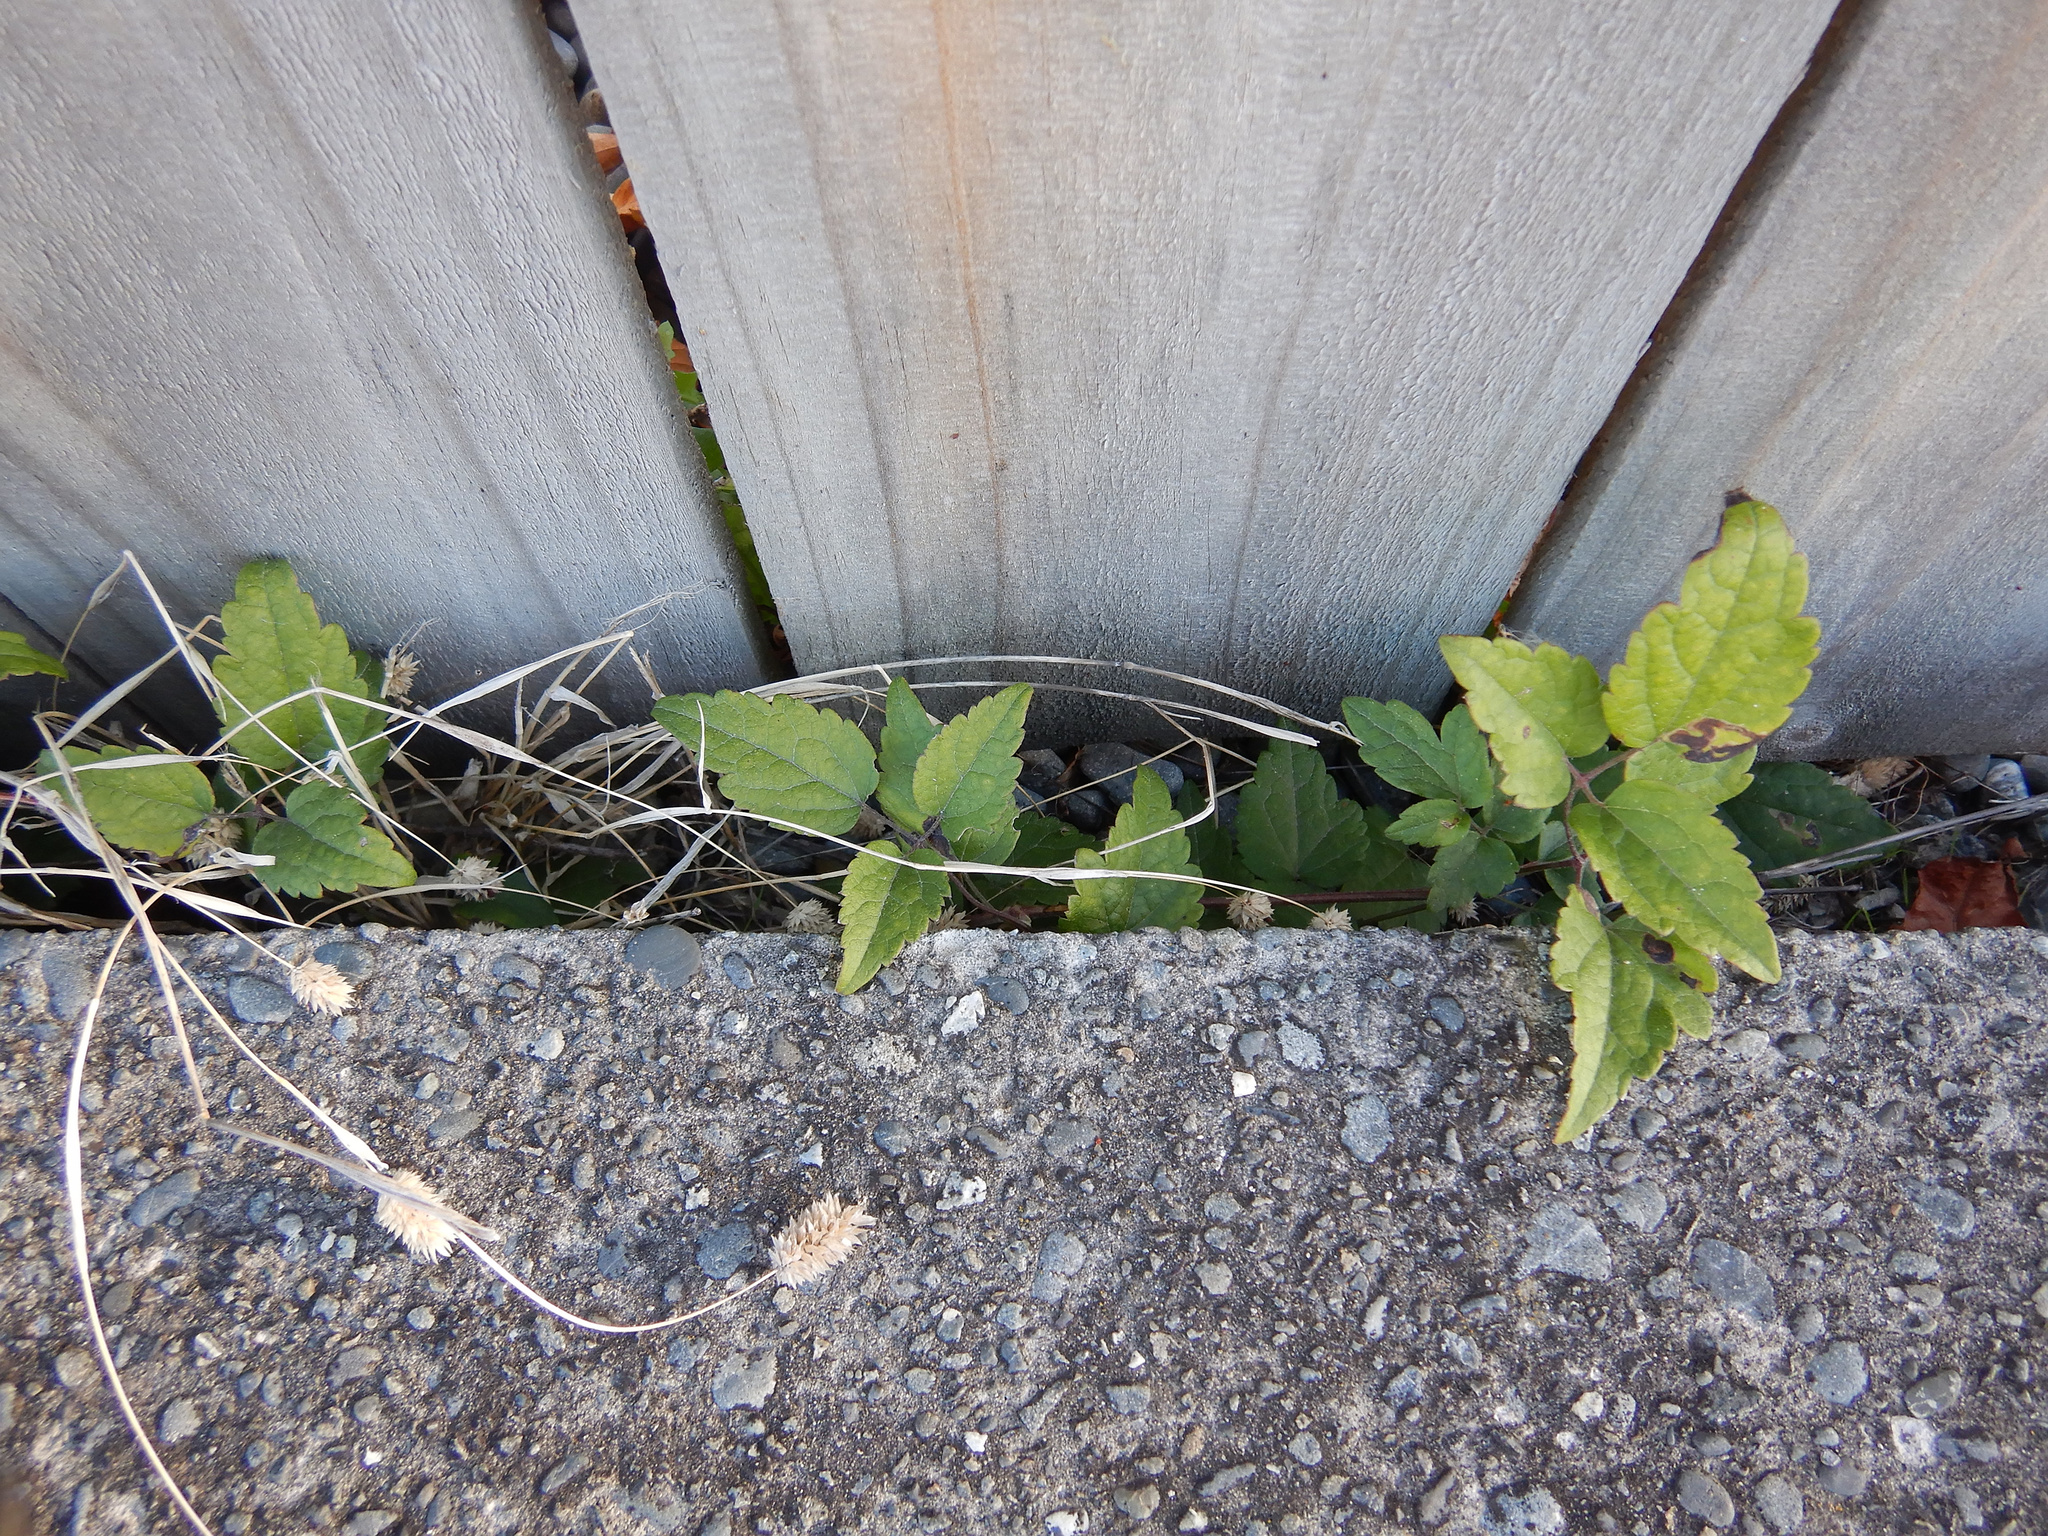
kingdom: Plantae
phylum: Tracheophyta
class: Magnoliopsida
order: Ranunculales
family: Ranunculaceae
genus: Clematis
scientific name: Clematis vitalba
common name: Evergreen clematis
